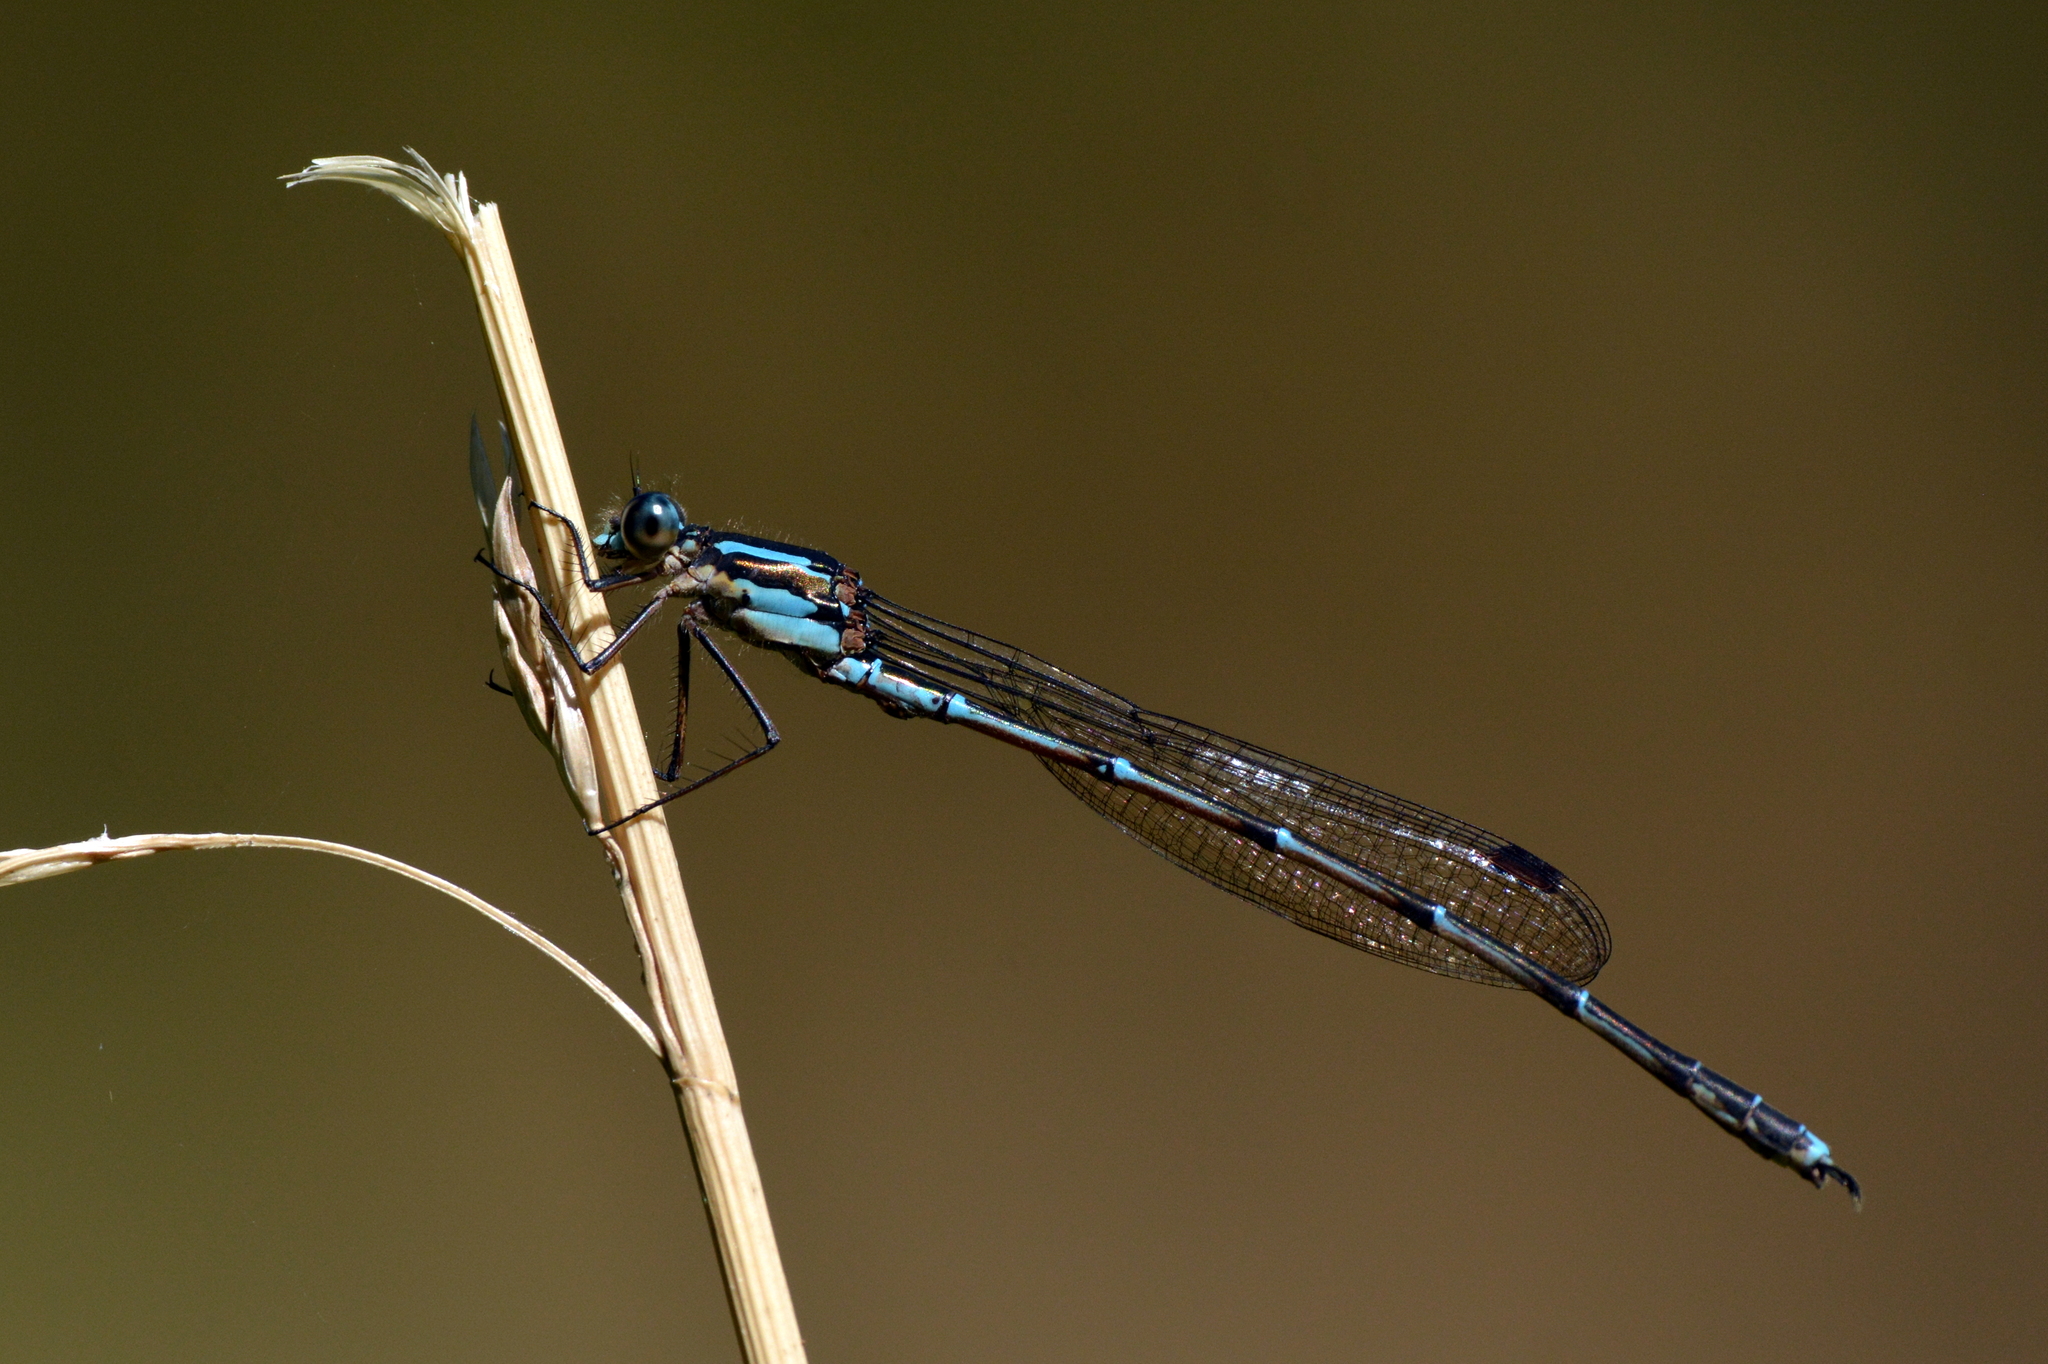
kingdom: Animalia
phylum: Arthropoda
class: Insecta
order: Odonata
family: Lestidae
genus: Austrolestes
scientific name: Austrolestes colensonis
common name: Blue damselfly
